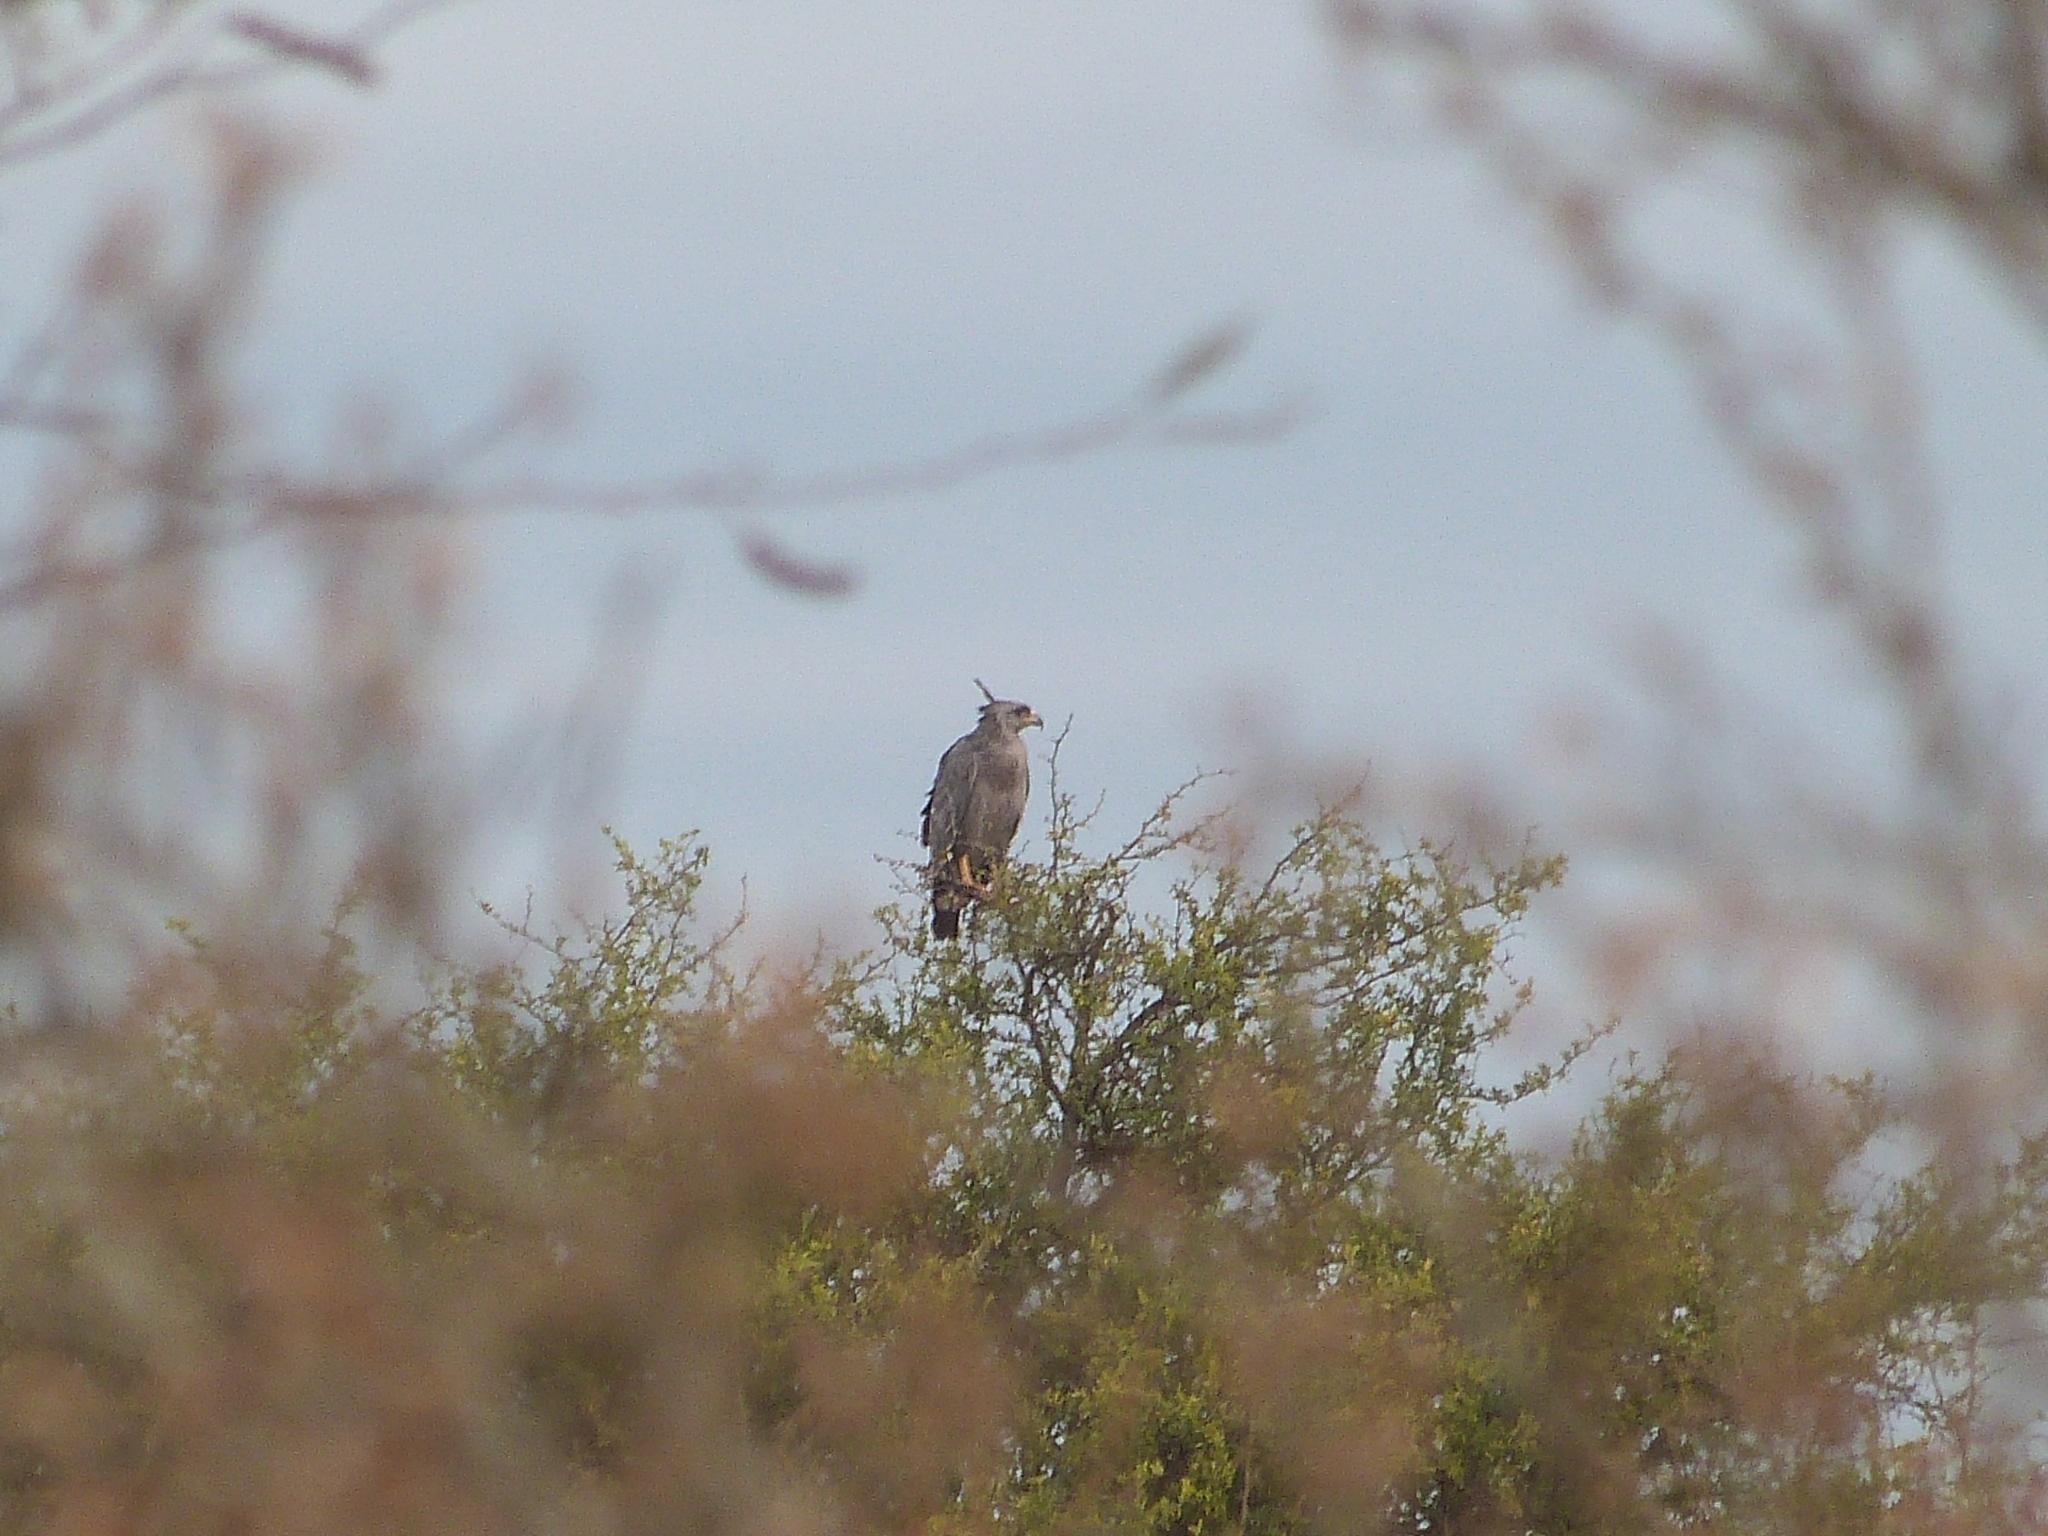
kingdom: Animalia
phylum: Chordata
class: Aves
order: Accipitriformes
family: Accipitridae
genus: Harpyhaliaetus
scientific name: Harpyhaliaetus coronatus
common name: Crowned solitary eagle
